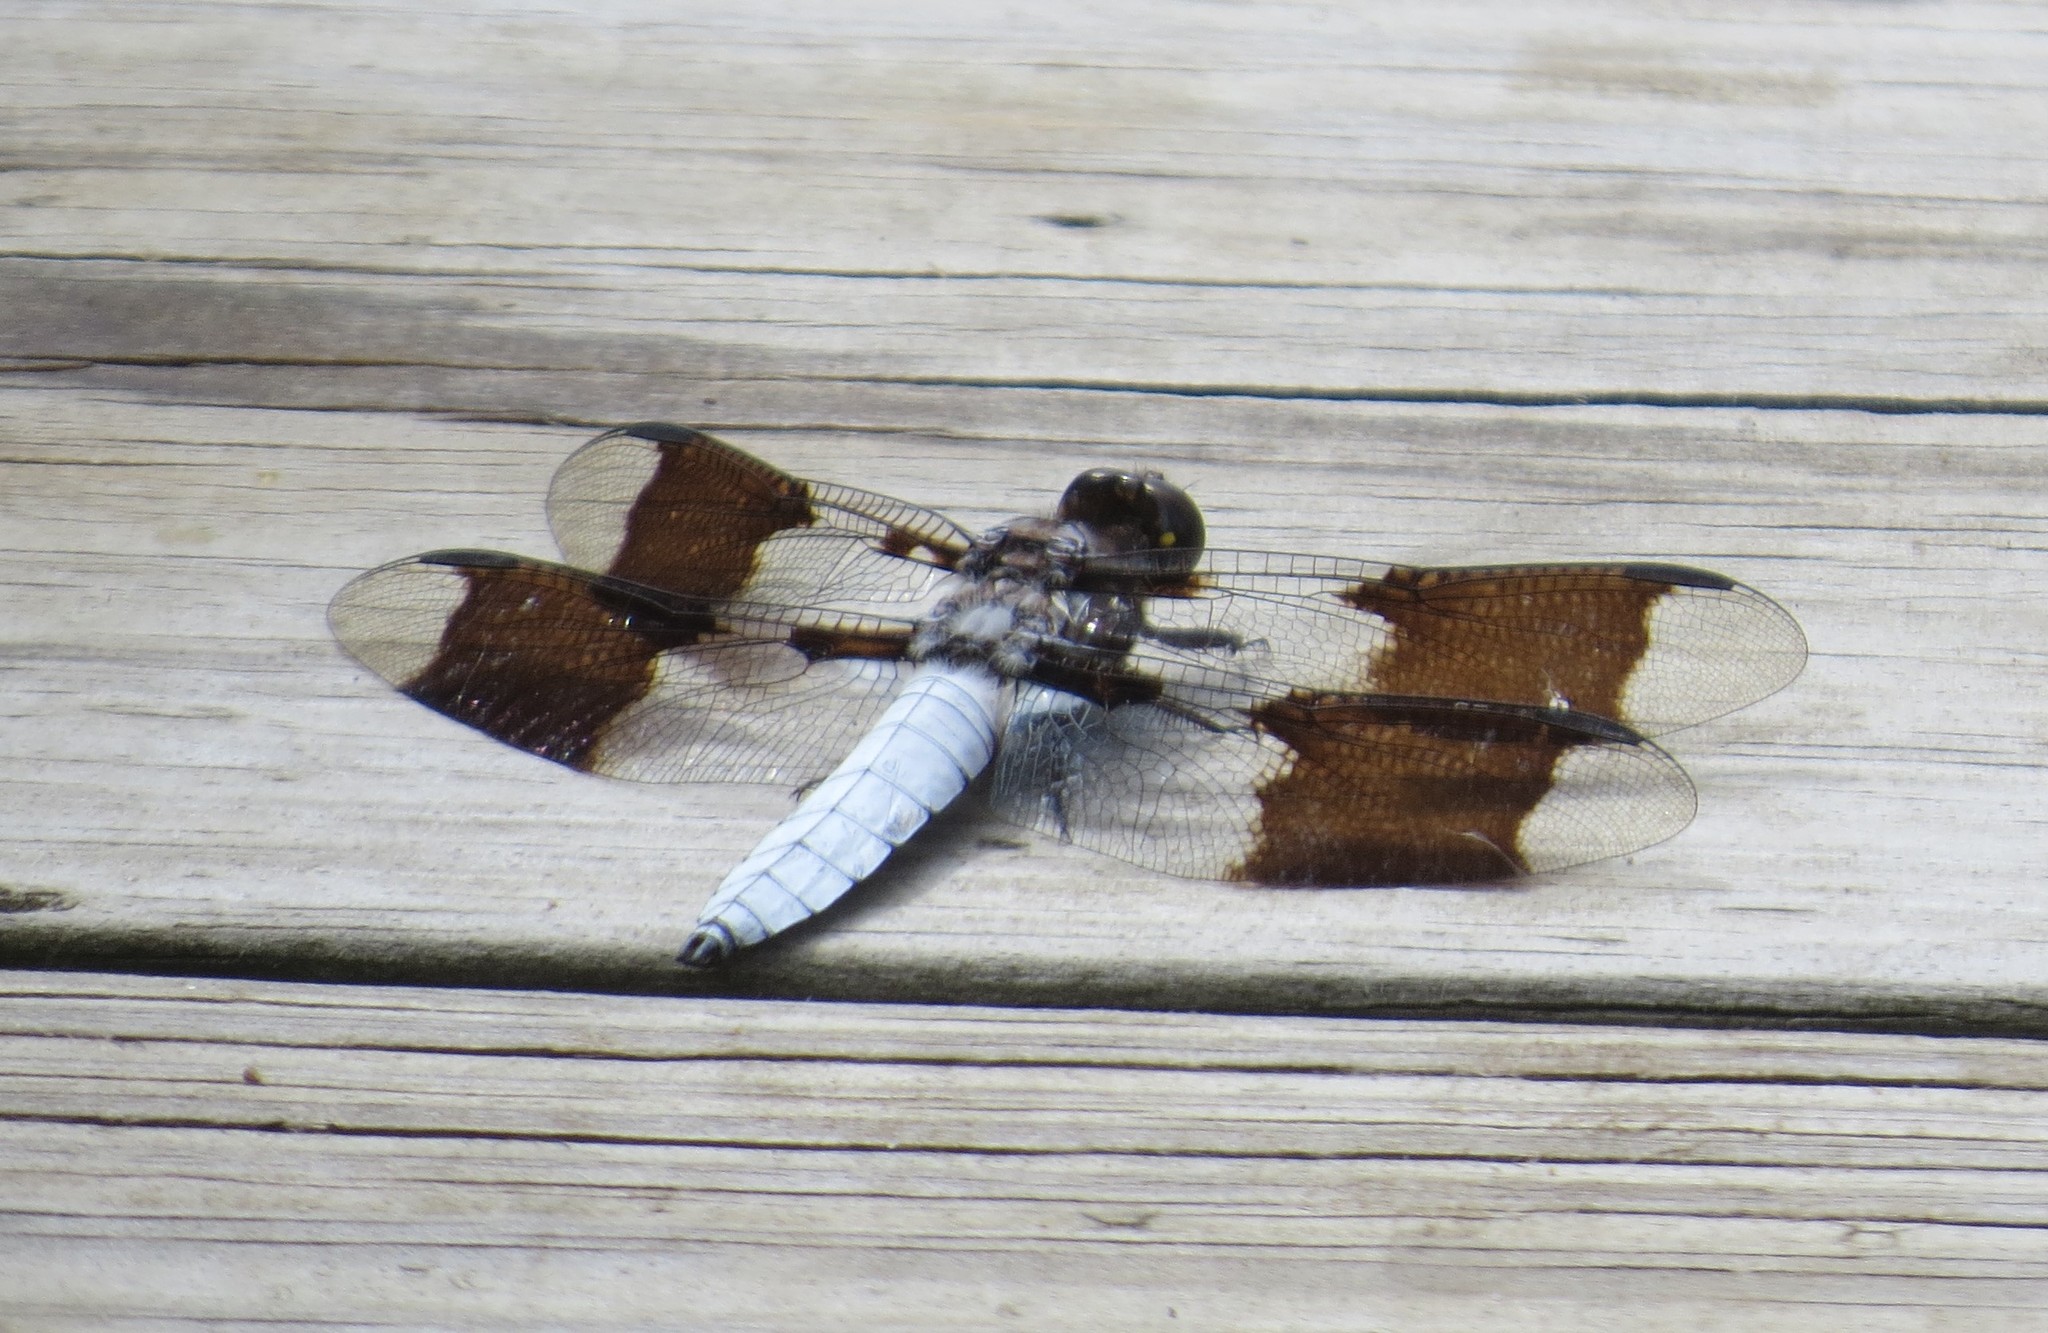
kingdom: Animalia
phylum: Arthropoda
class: Insecta
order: Odonata
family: Libellulidae
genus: Plathemis
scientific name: Plathemis lydia
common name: Common whitetail
